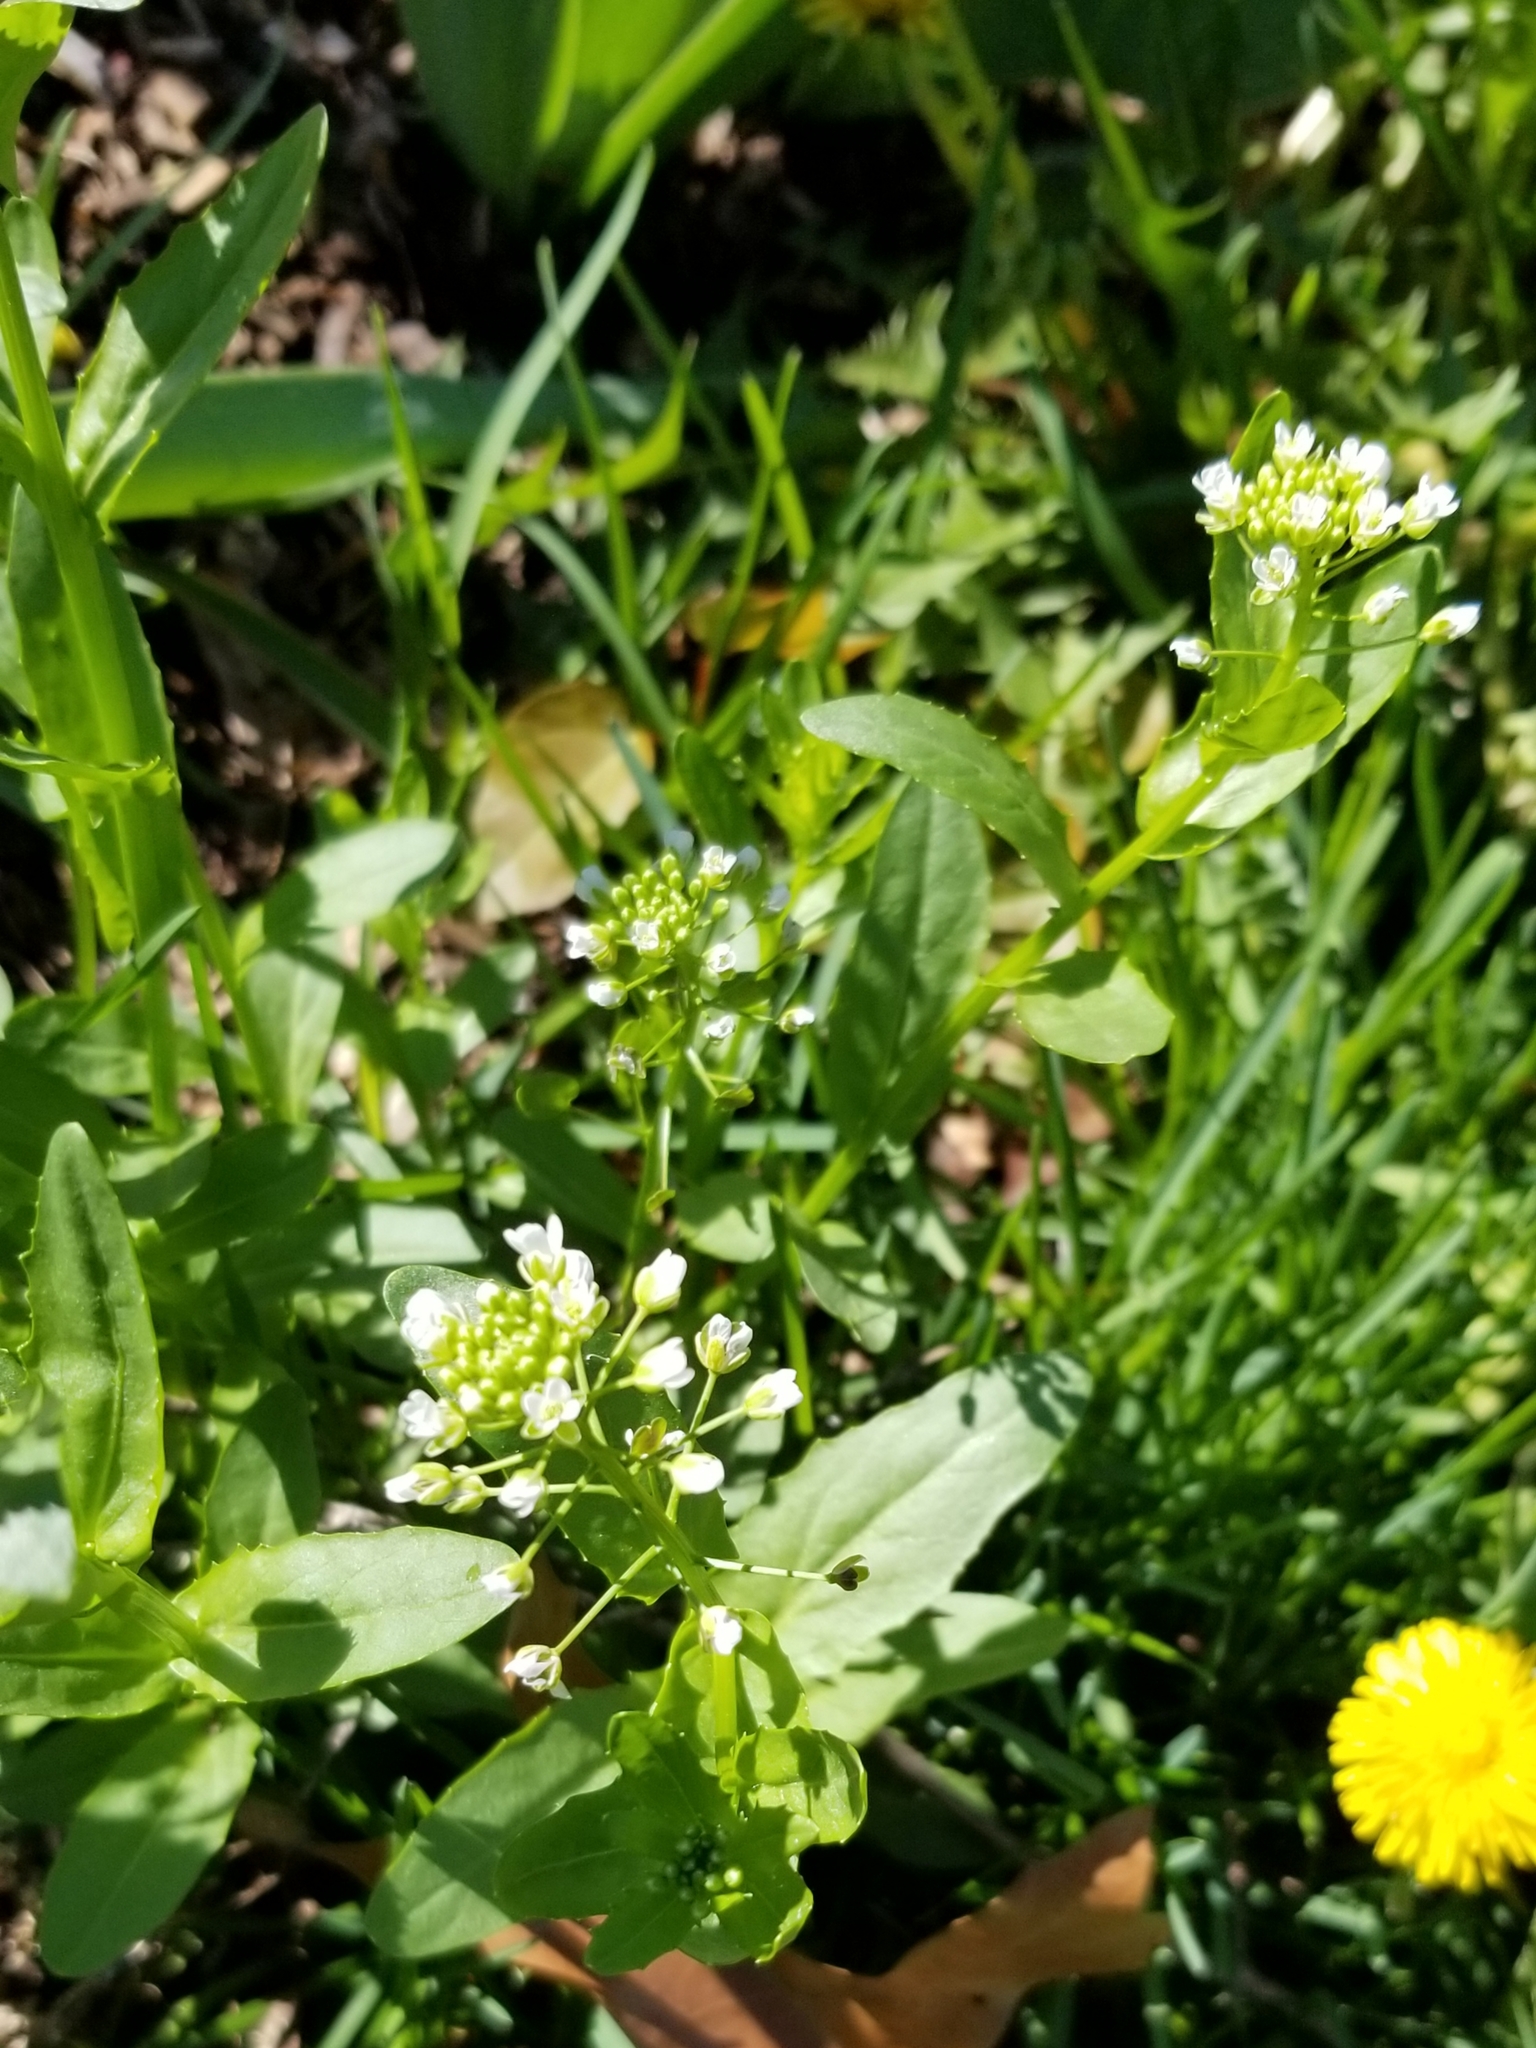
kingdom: Plantae
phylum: Tracheophyta
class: Magnoliopsida
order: Brassicales
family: Brassicaceae
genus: Thlaspi
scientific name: Thlaspi arvense
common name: Field pennycress
